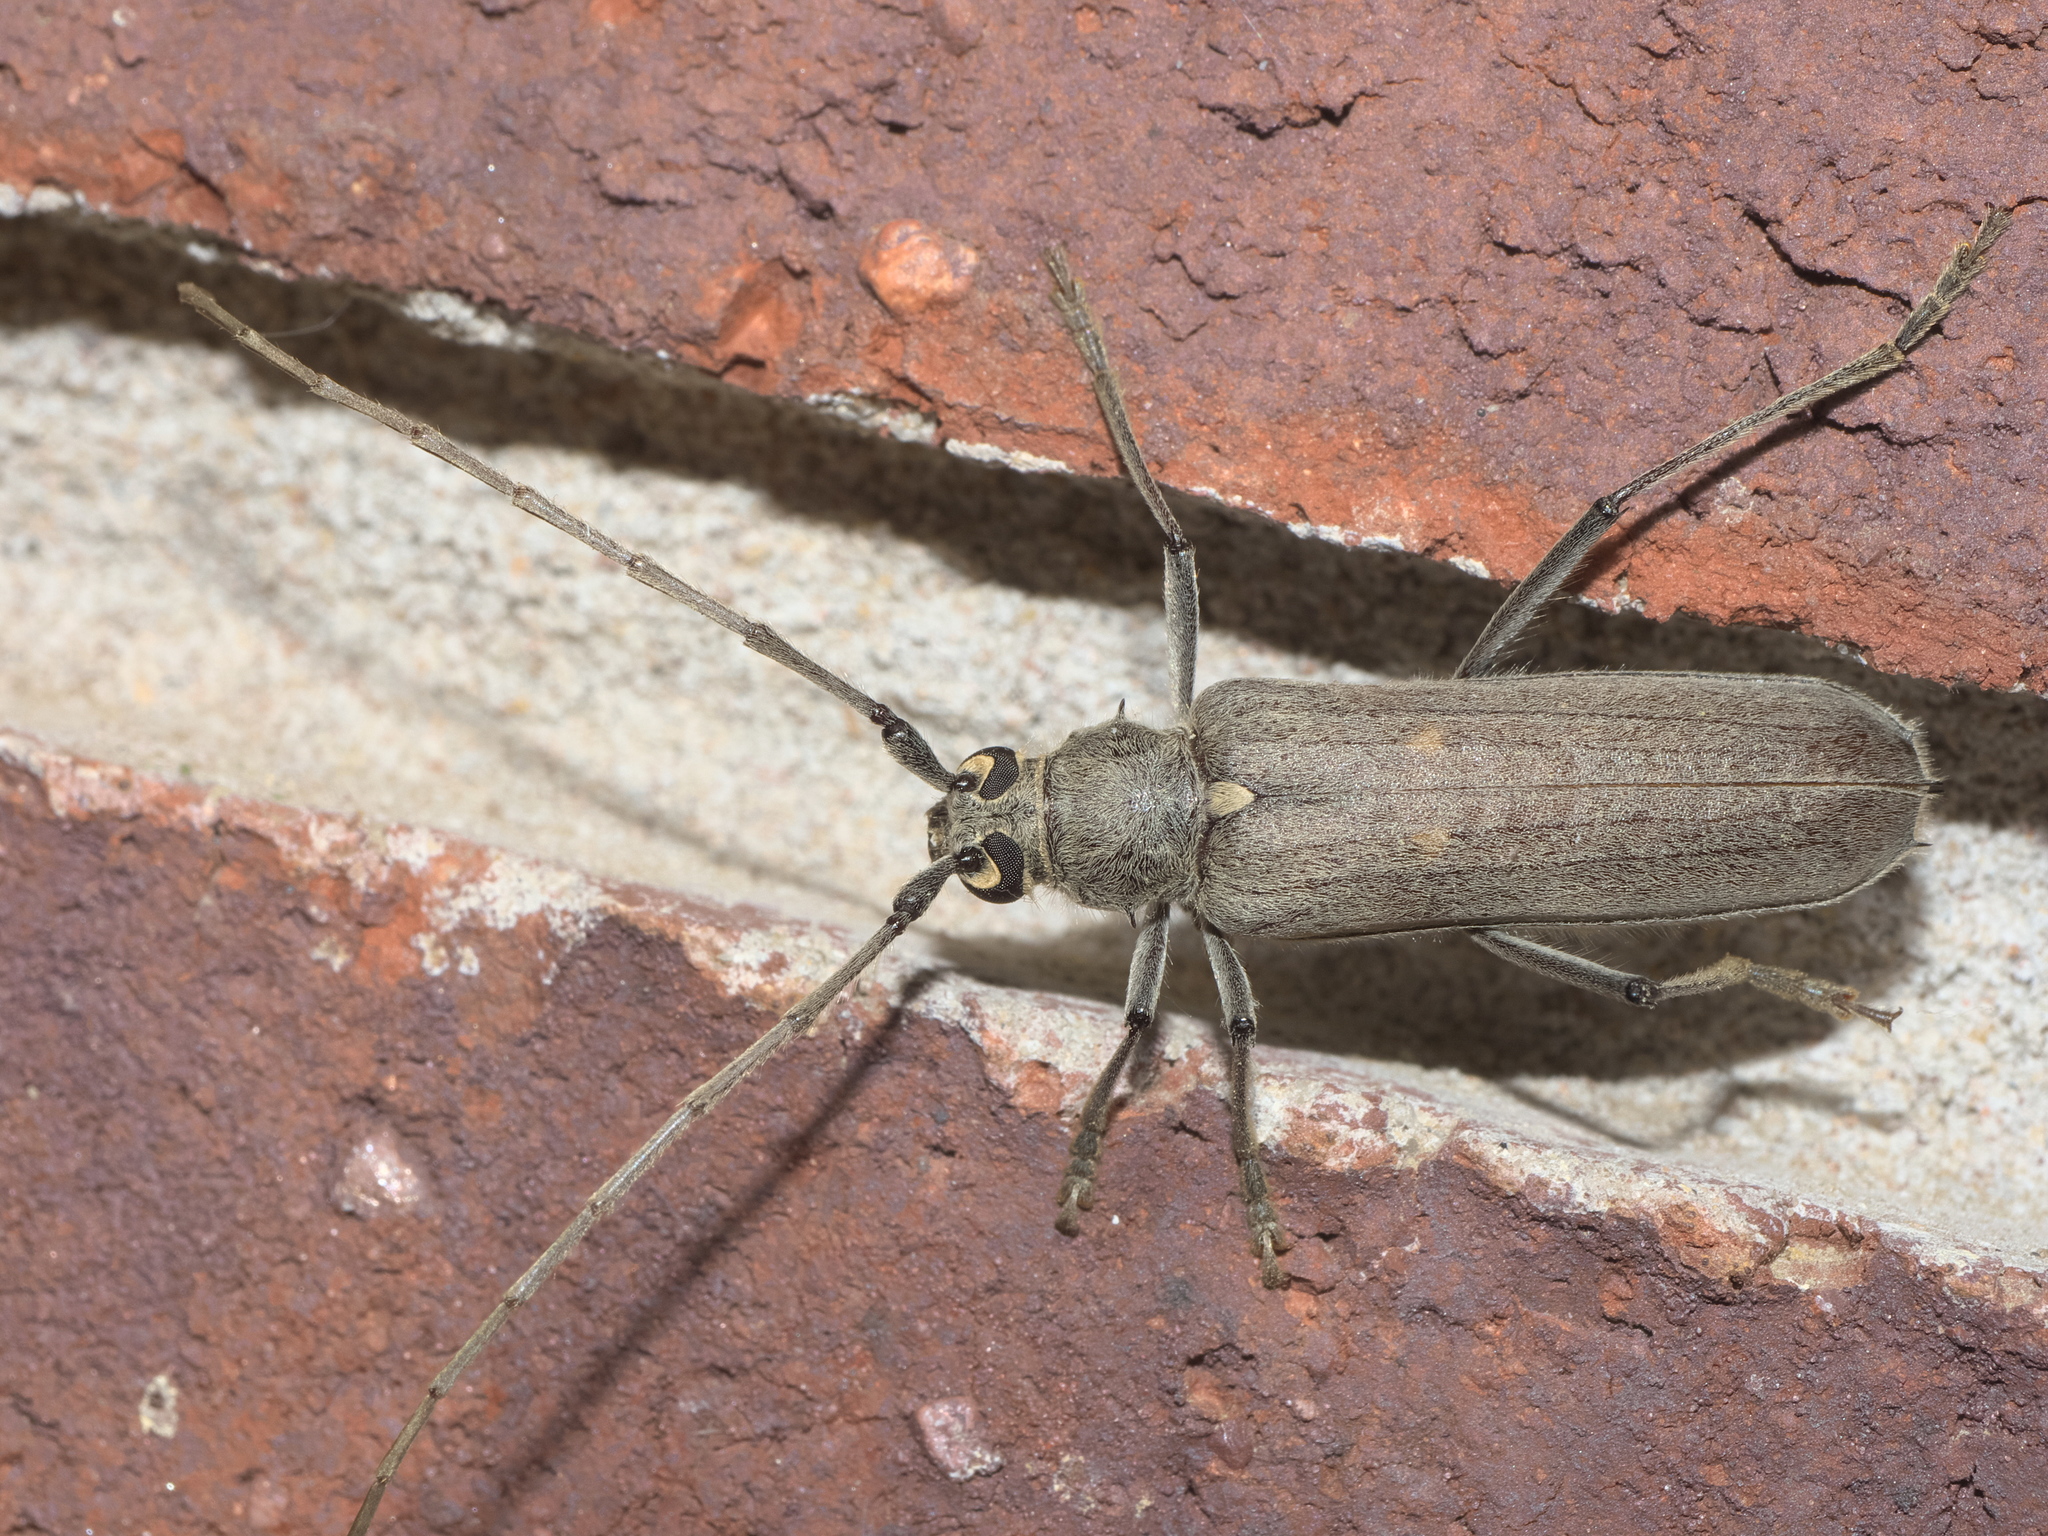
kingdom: Animalia
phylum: Arthropoda
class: Insecta
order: Coleoptera
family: Cerambycidae
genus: Knulliana
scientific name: Knulliana cincta
